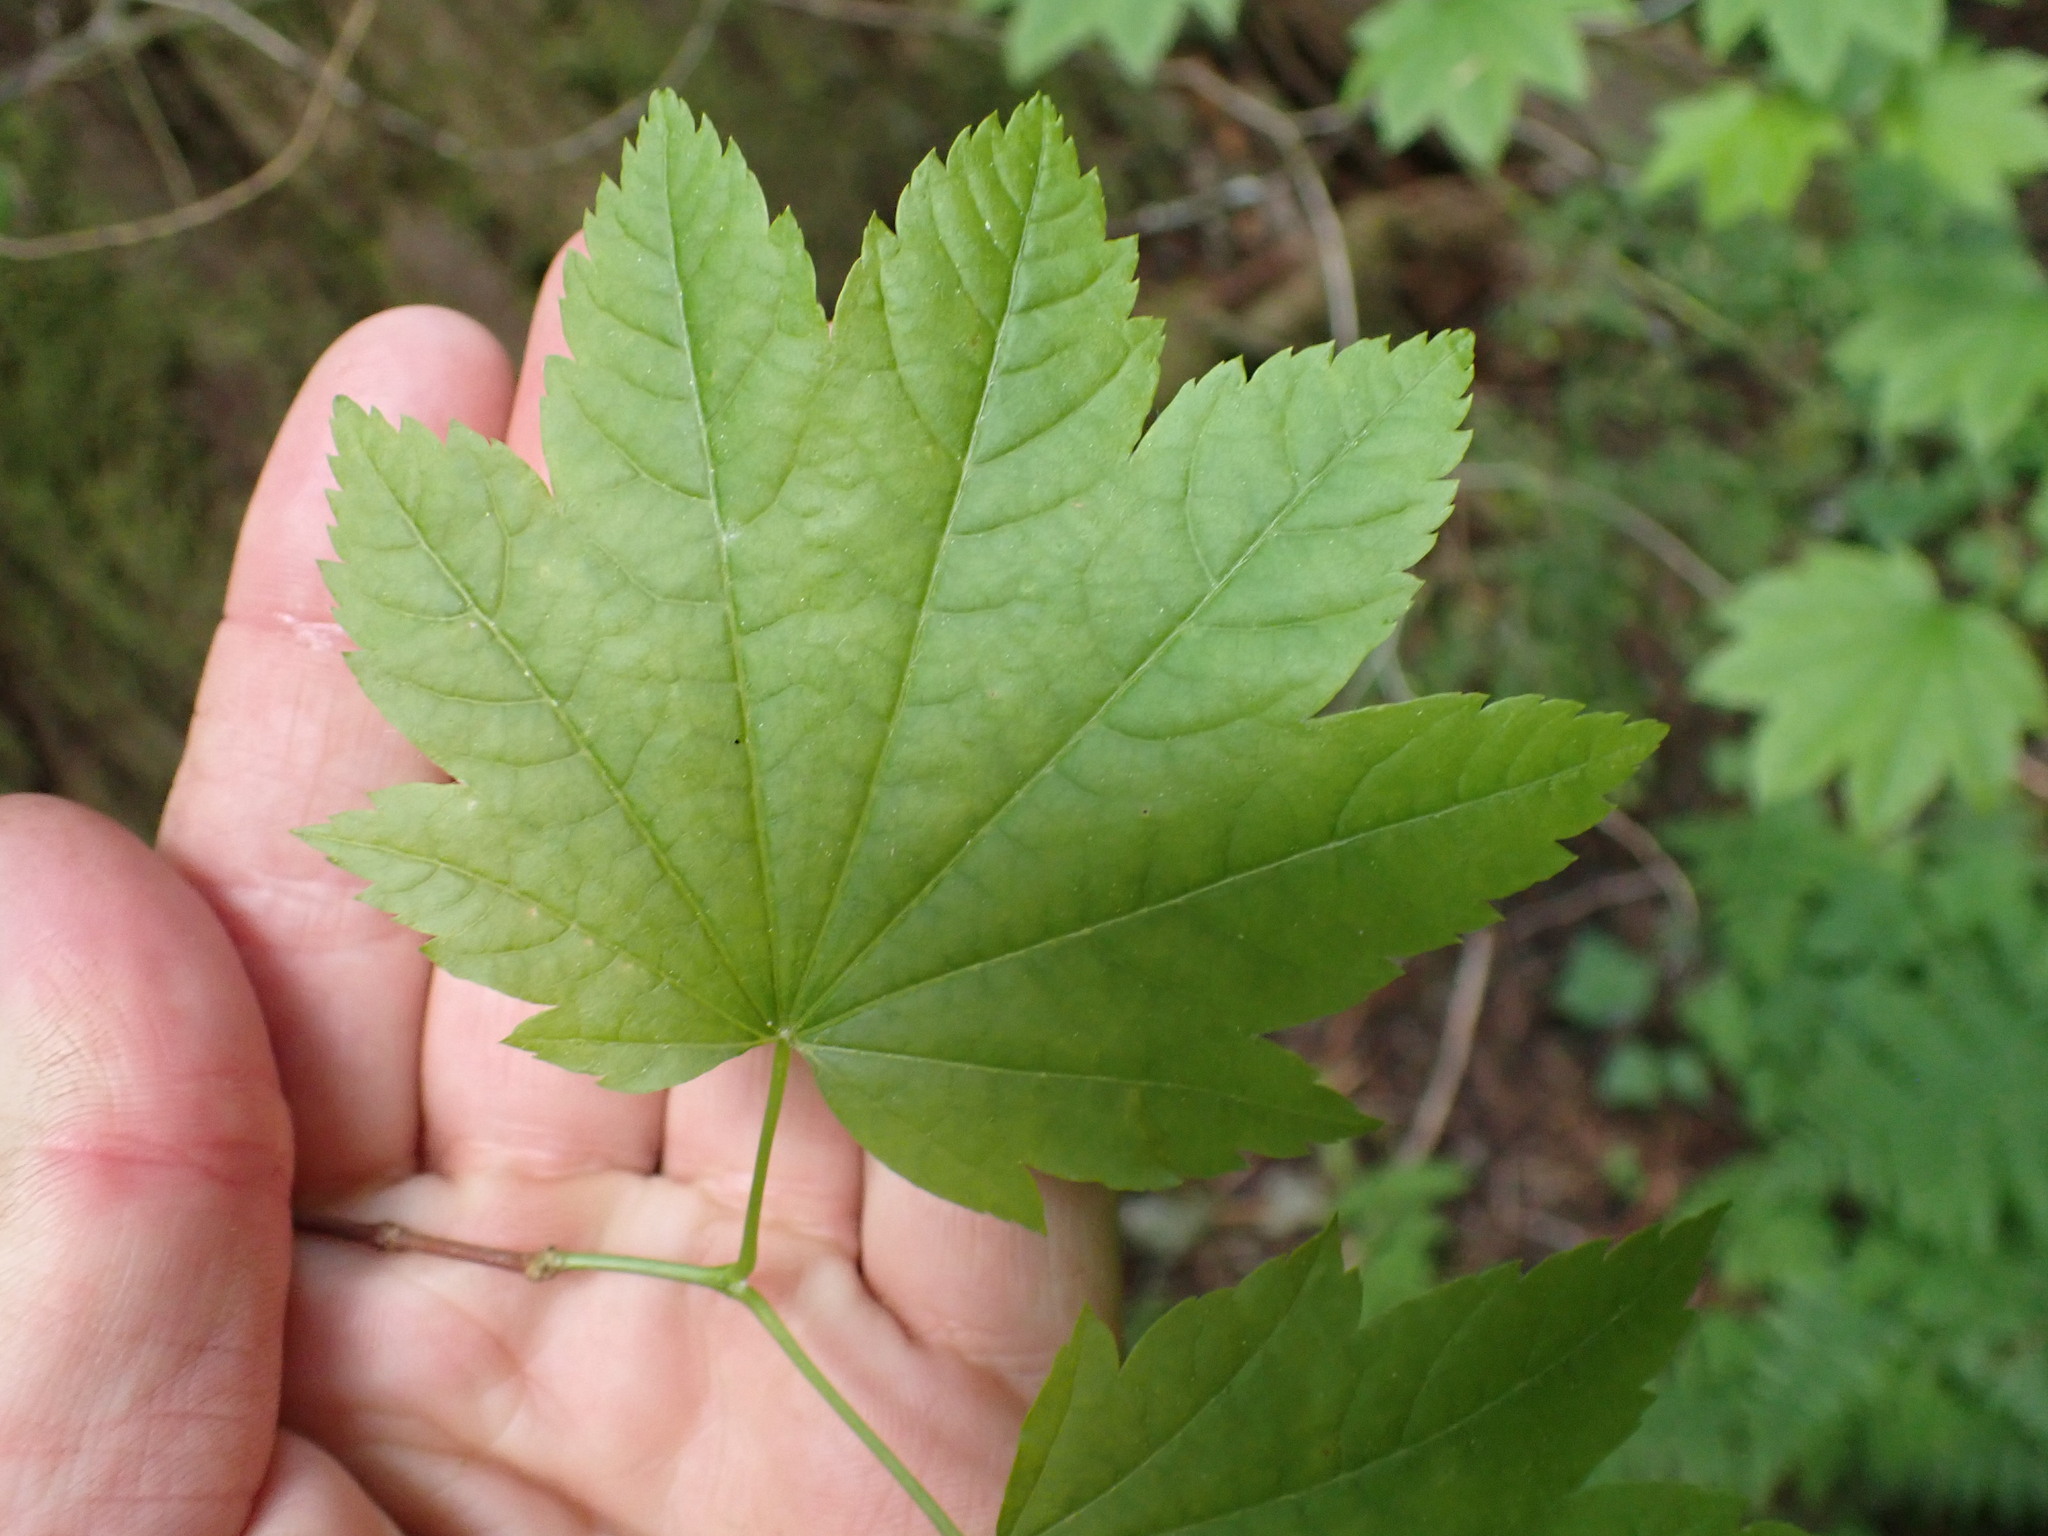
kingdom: Plantae
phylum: Tracheophyta
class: Magnoliopsida
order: Sapindales
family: Sapindaceae
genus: Acer
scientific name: Acer circinatum
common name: Vine maple
